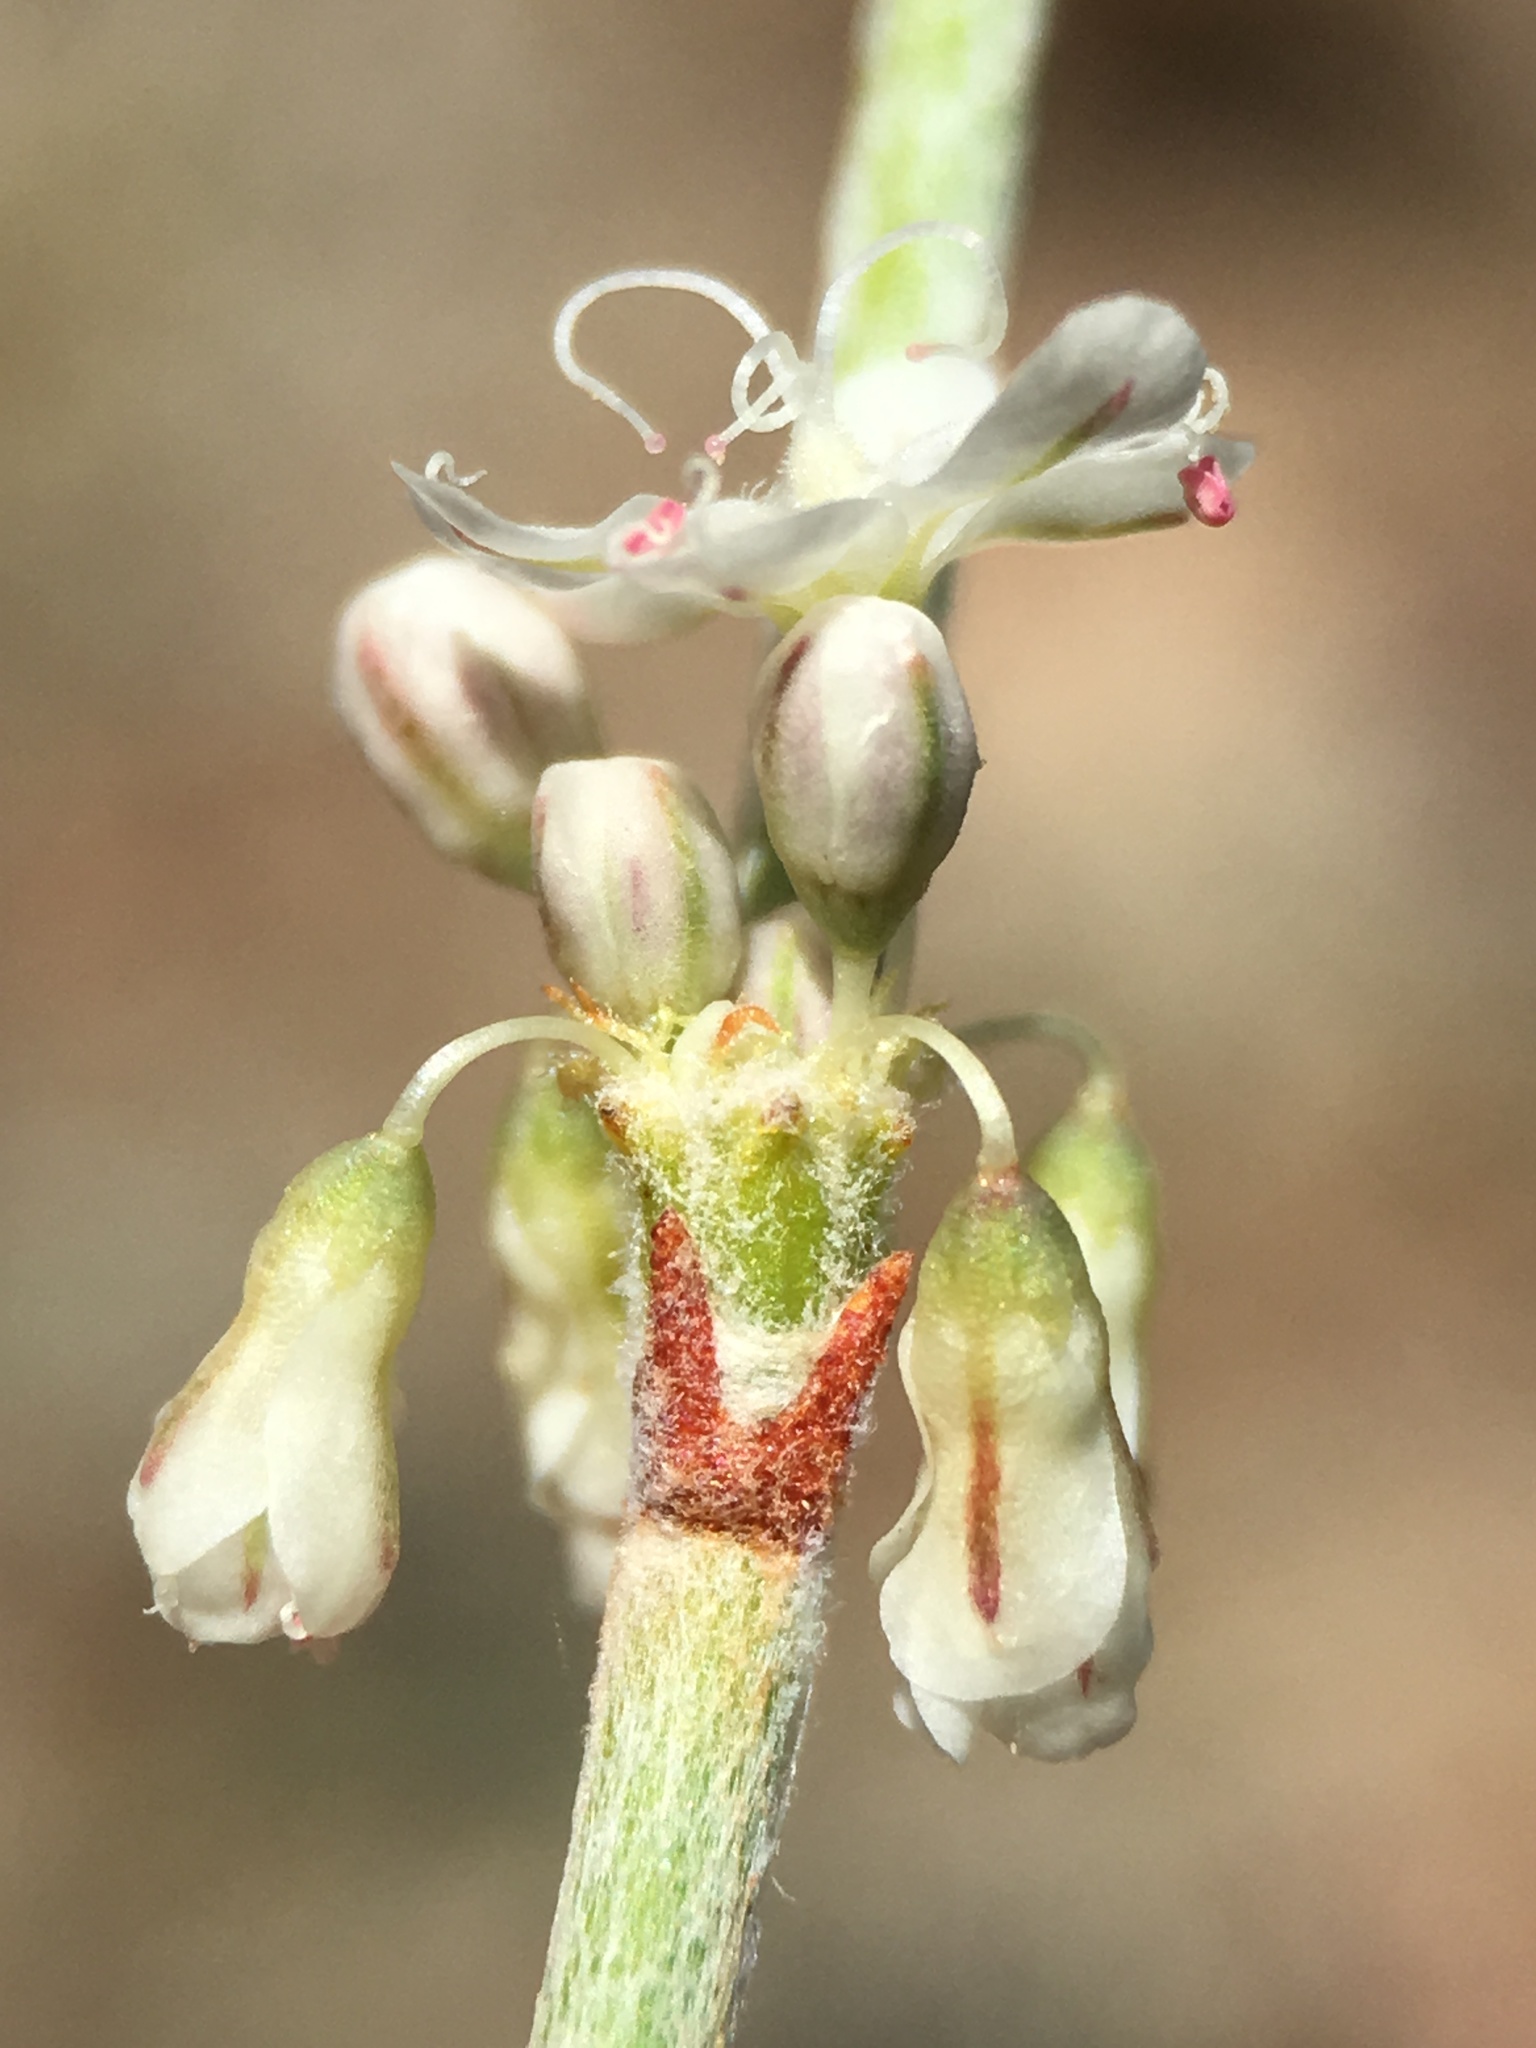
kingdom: Plantae
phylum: Tracheophyta
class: Magnoliopsida
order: Caryophyllales
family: Polygonaceae
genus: Eriogonum
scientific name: Eriogonum wrightii
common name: Bastard-sage
